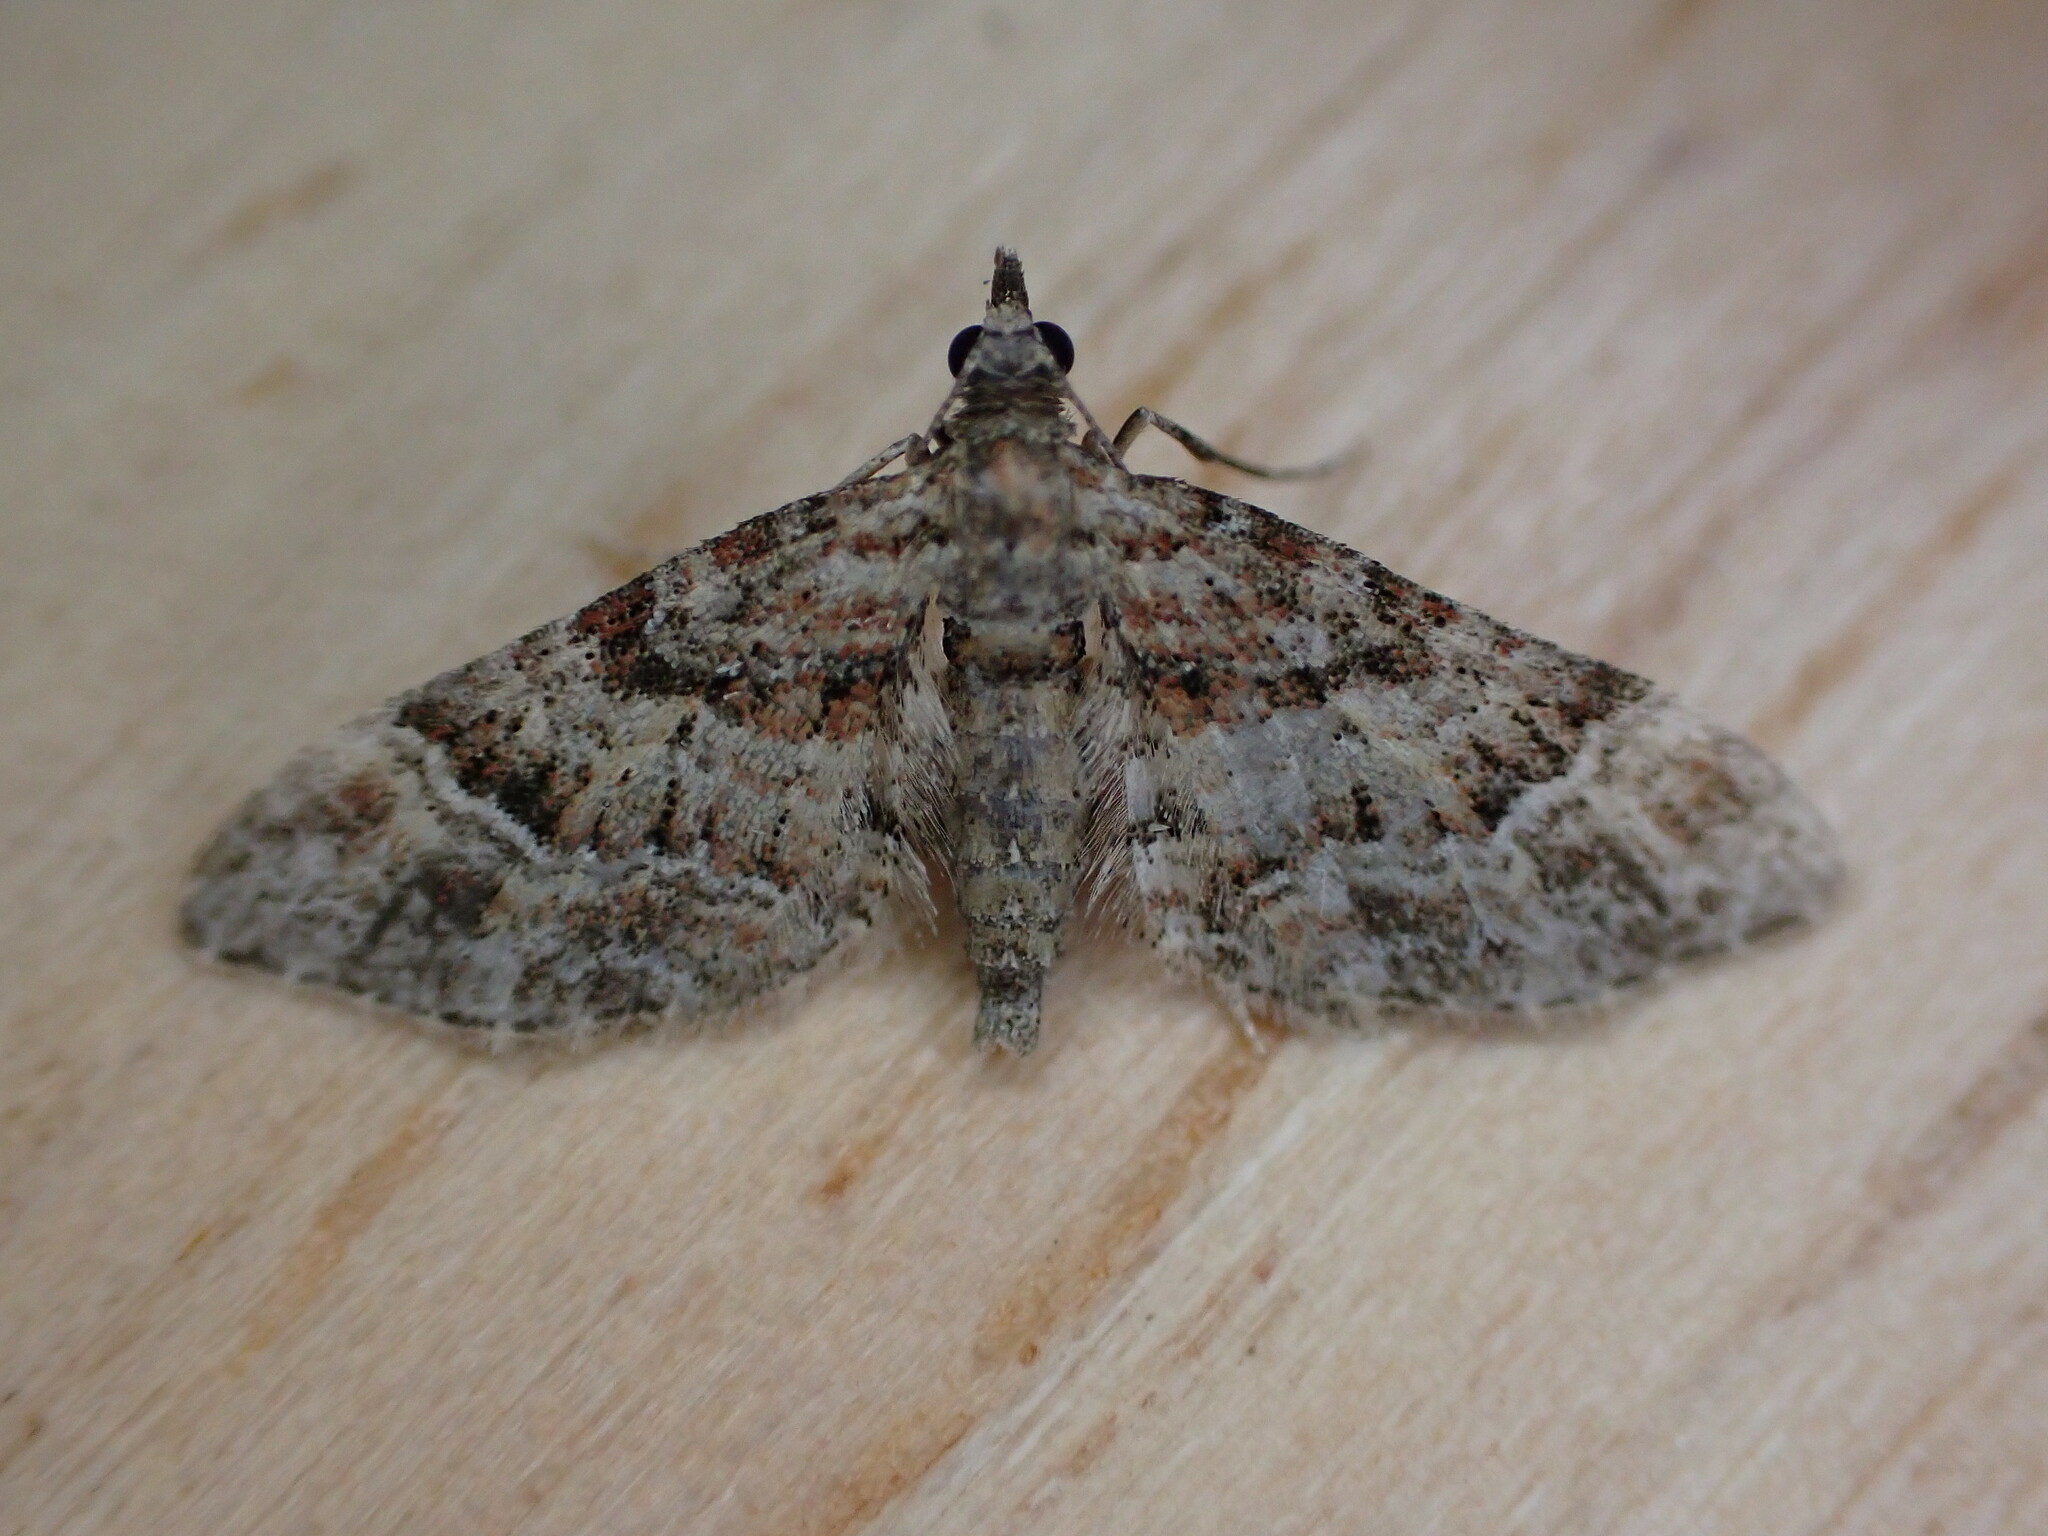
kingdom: Animalia
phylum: Arthropoda
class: Insecta
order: Lepidoptera
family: Geometridae
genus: Gymnoscelis
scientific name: Gymnoscelis rufifasciata
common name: Double-striped pug
